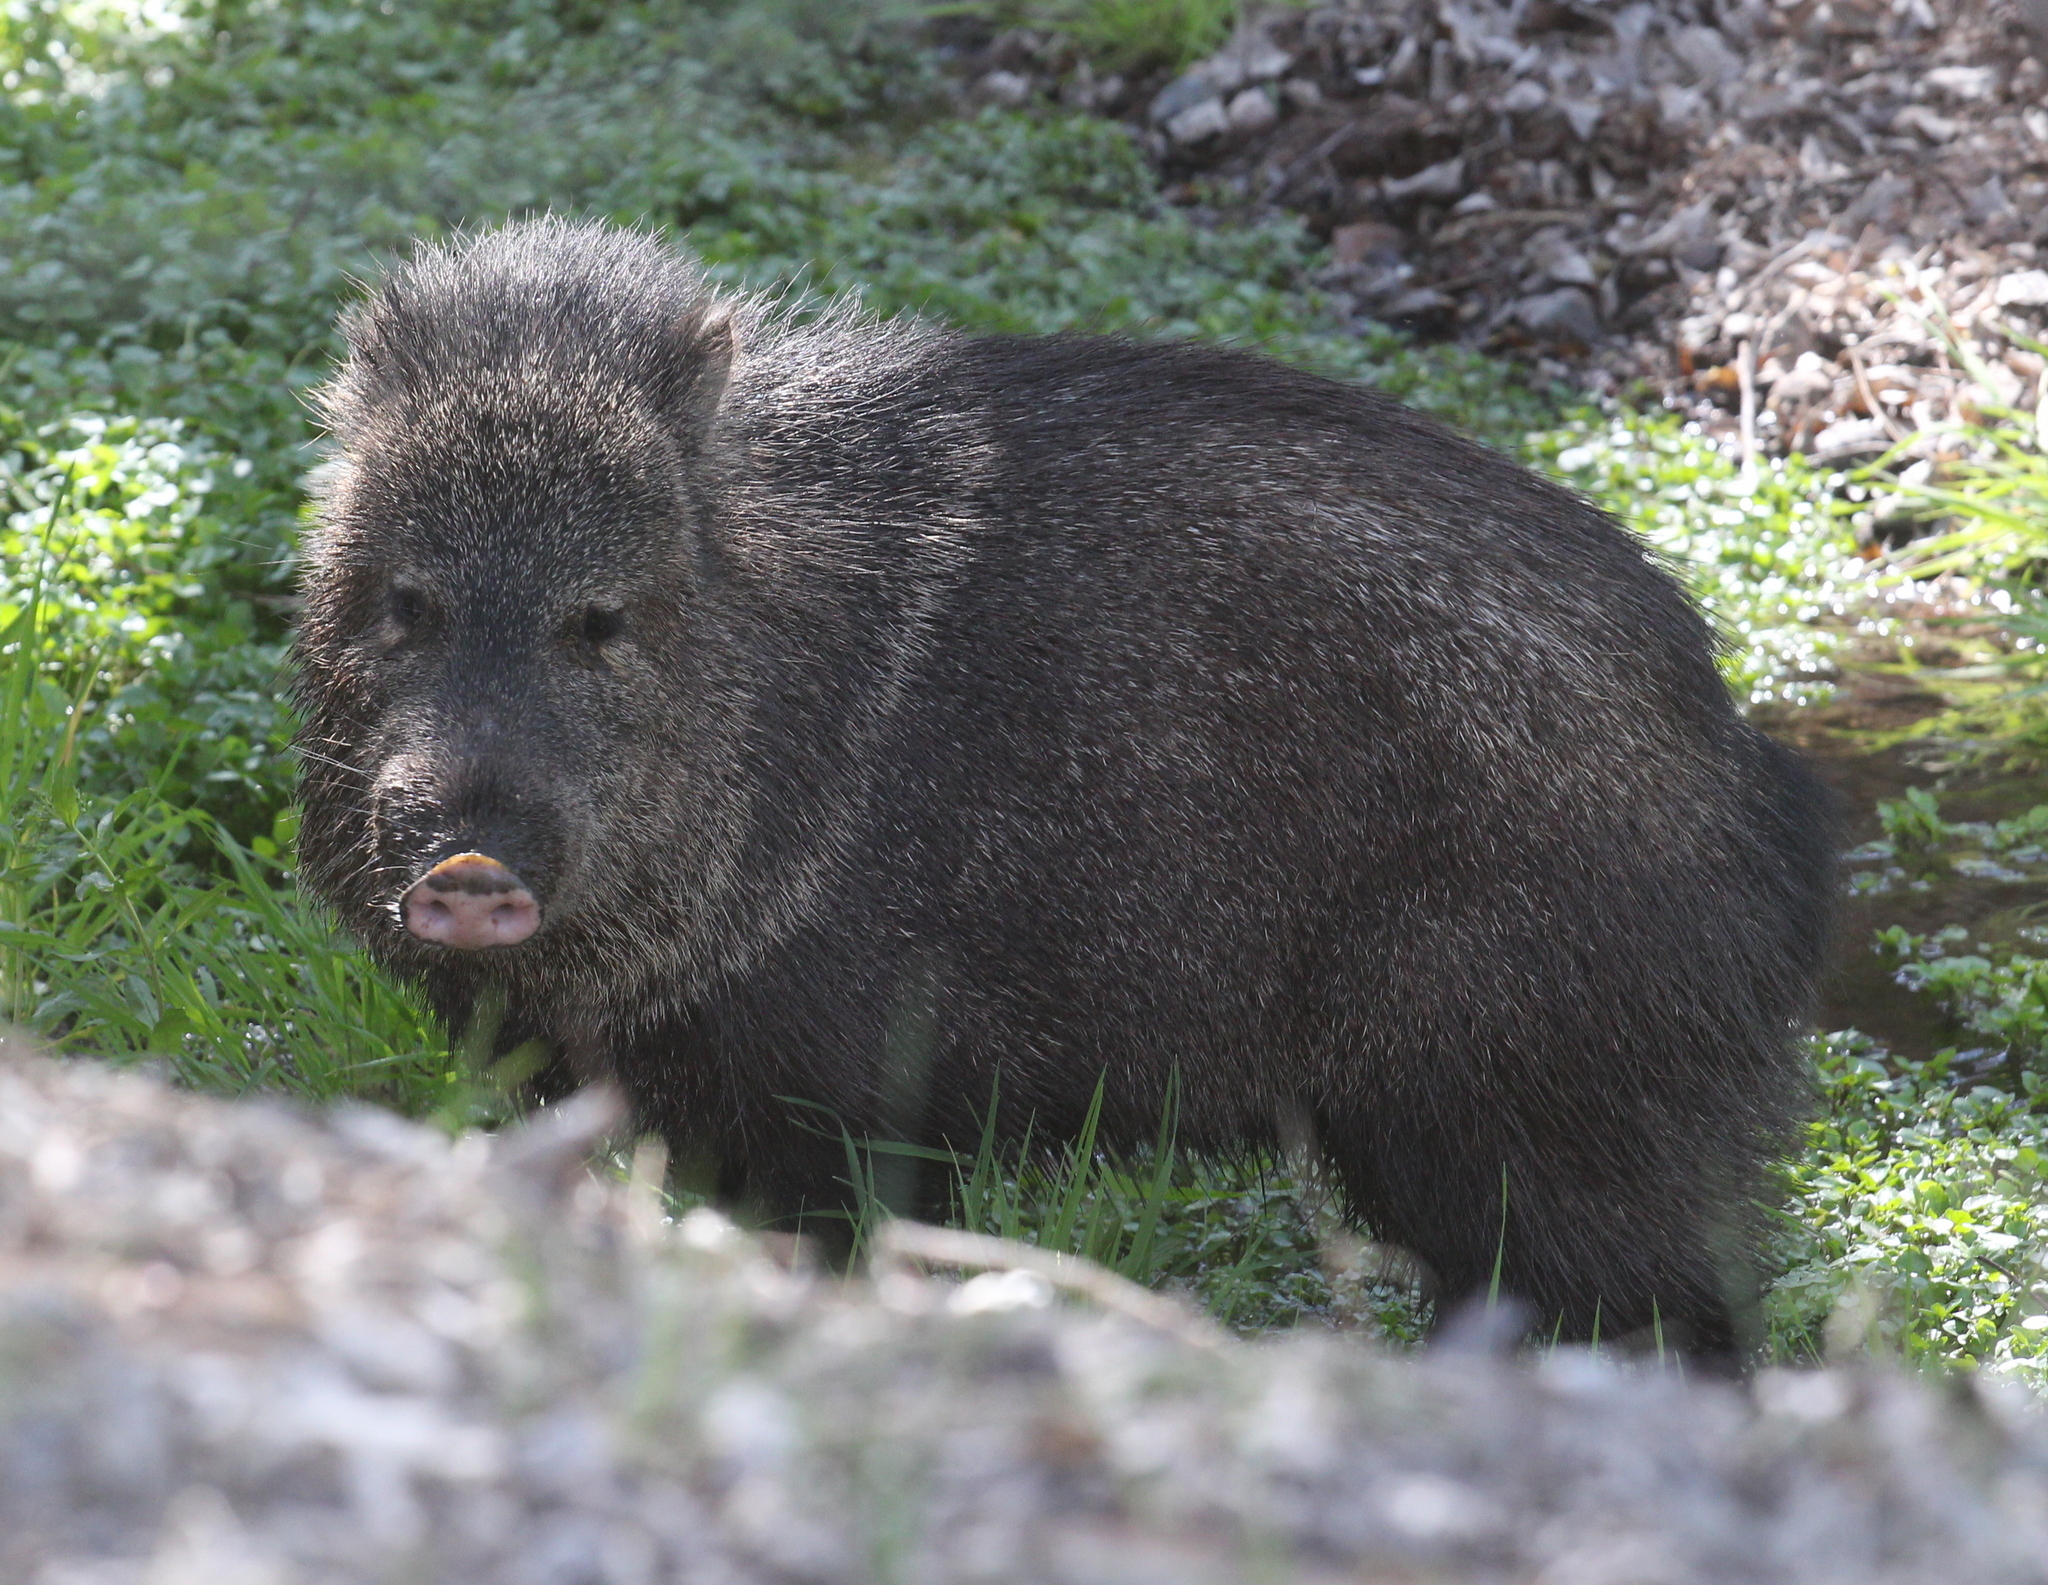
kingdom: Animalia
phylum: Chordata
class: Mammalia
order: Artiodactyla
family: Tayassuidae
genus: Pecari
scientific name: Pecari tajacu
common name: Collared peccary
